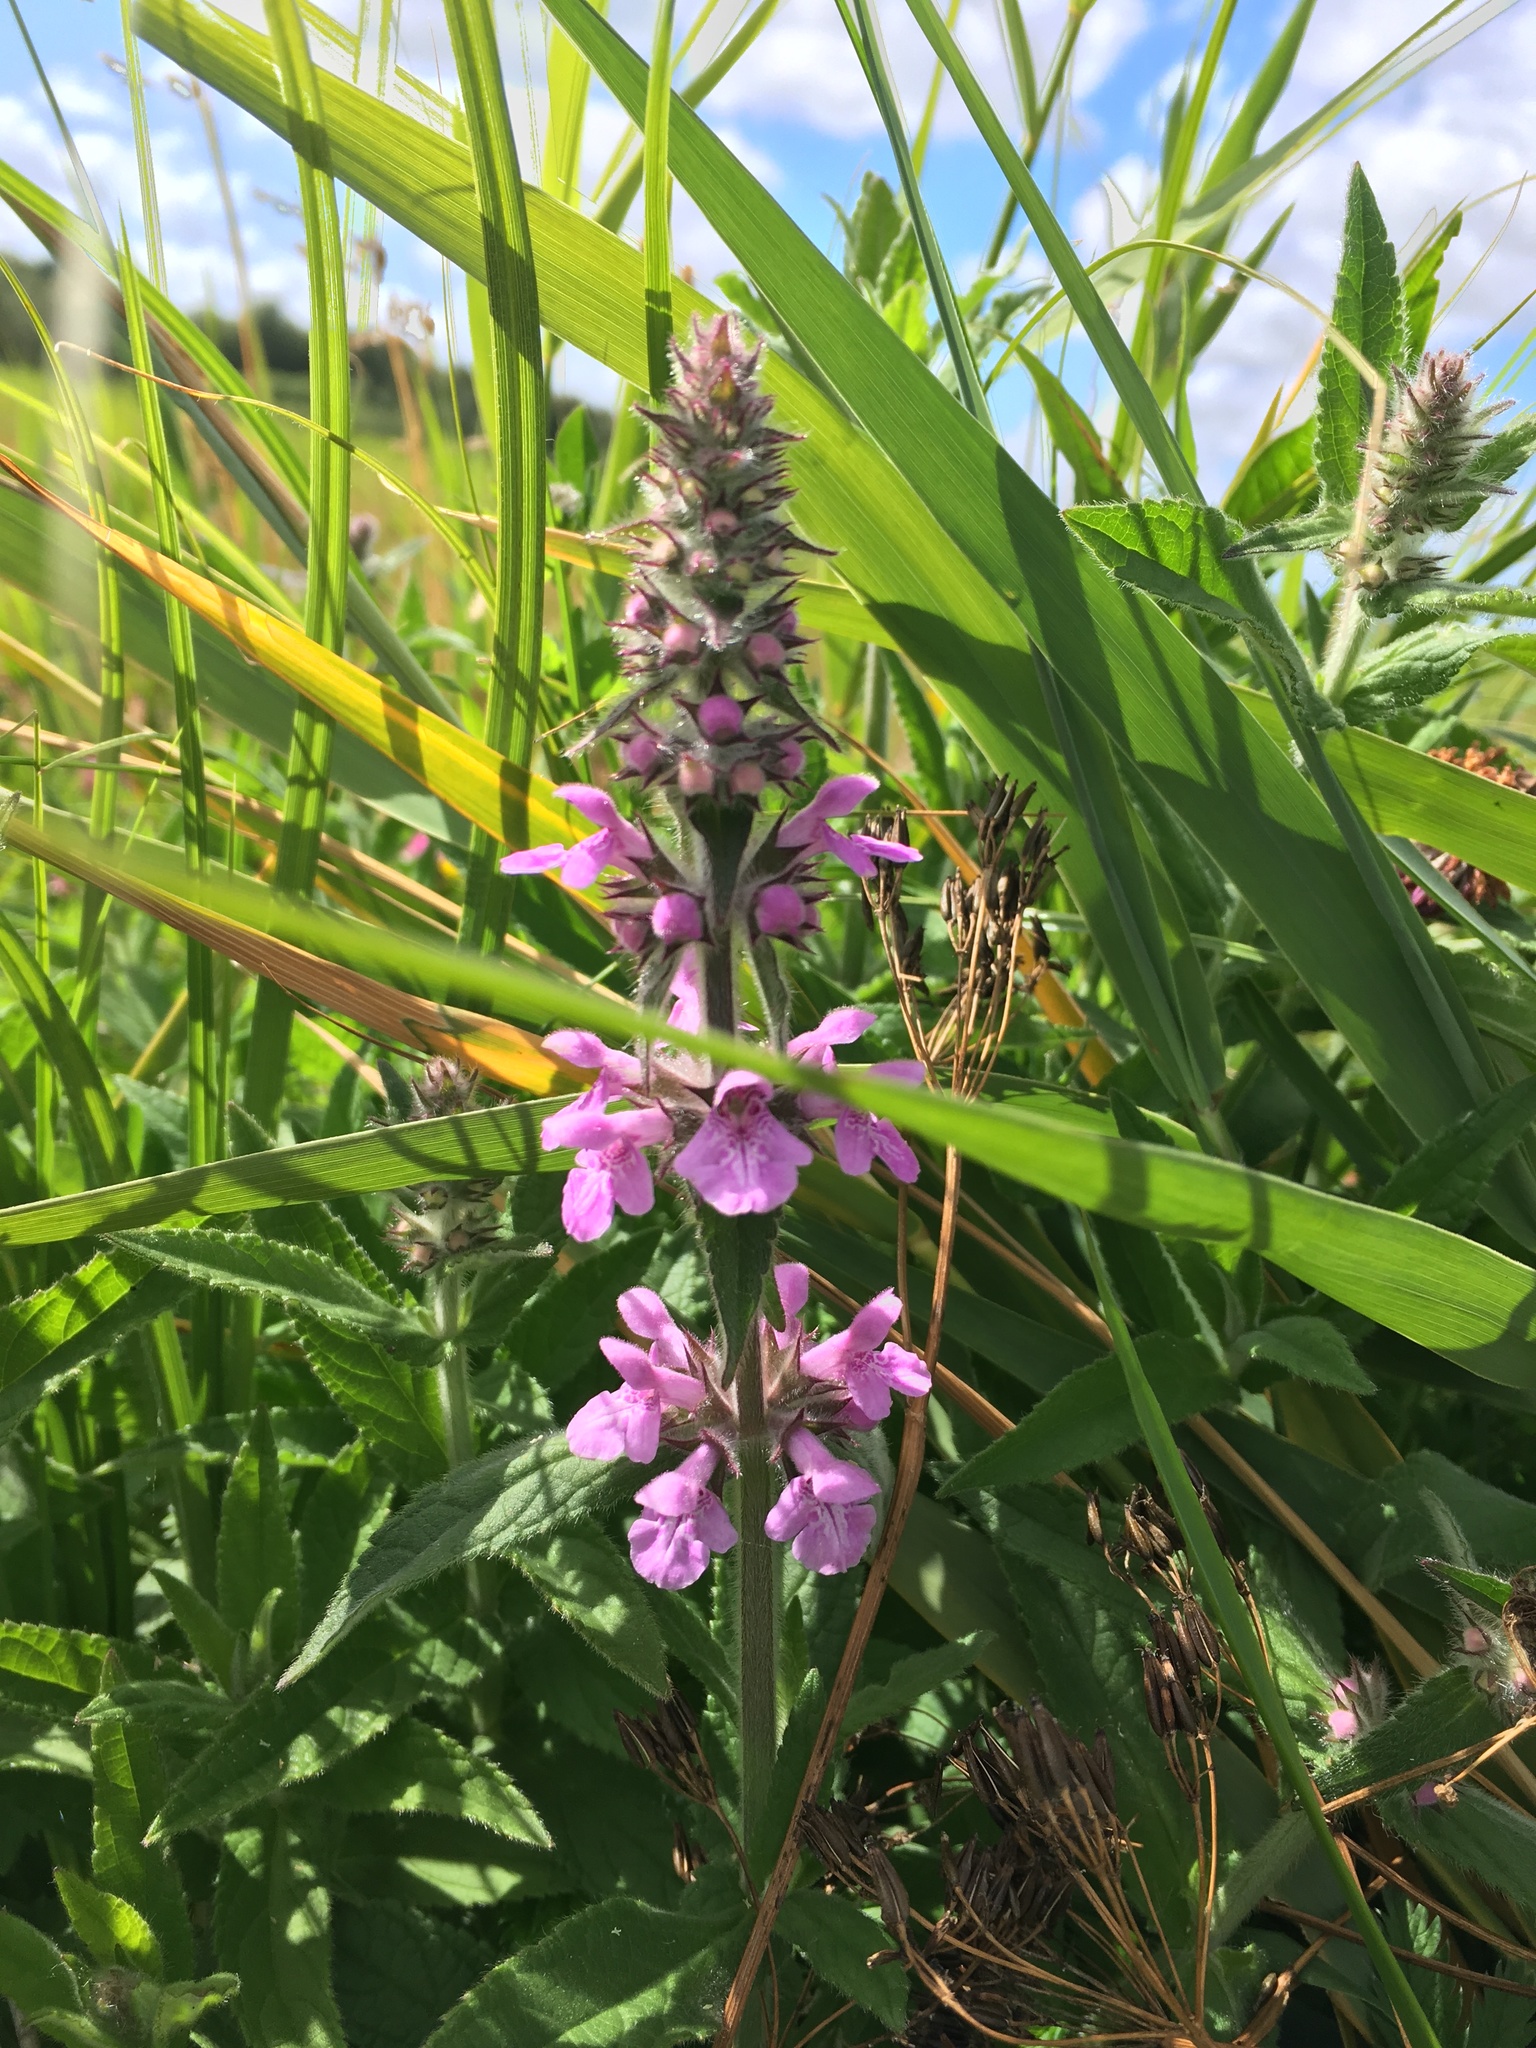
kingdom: Plantae
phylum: Tracheophyta
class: Magnoliopsida
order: Lamiales
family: Lamiaceae
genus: Stachys
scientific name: Stachys palustris
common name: Marsh woundwort
